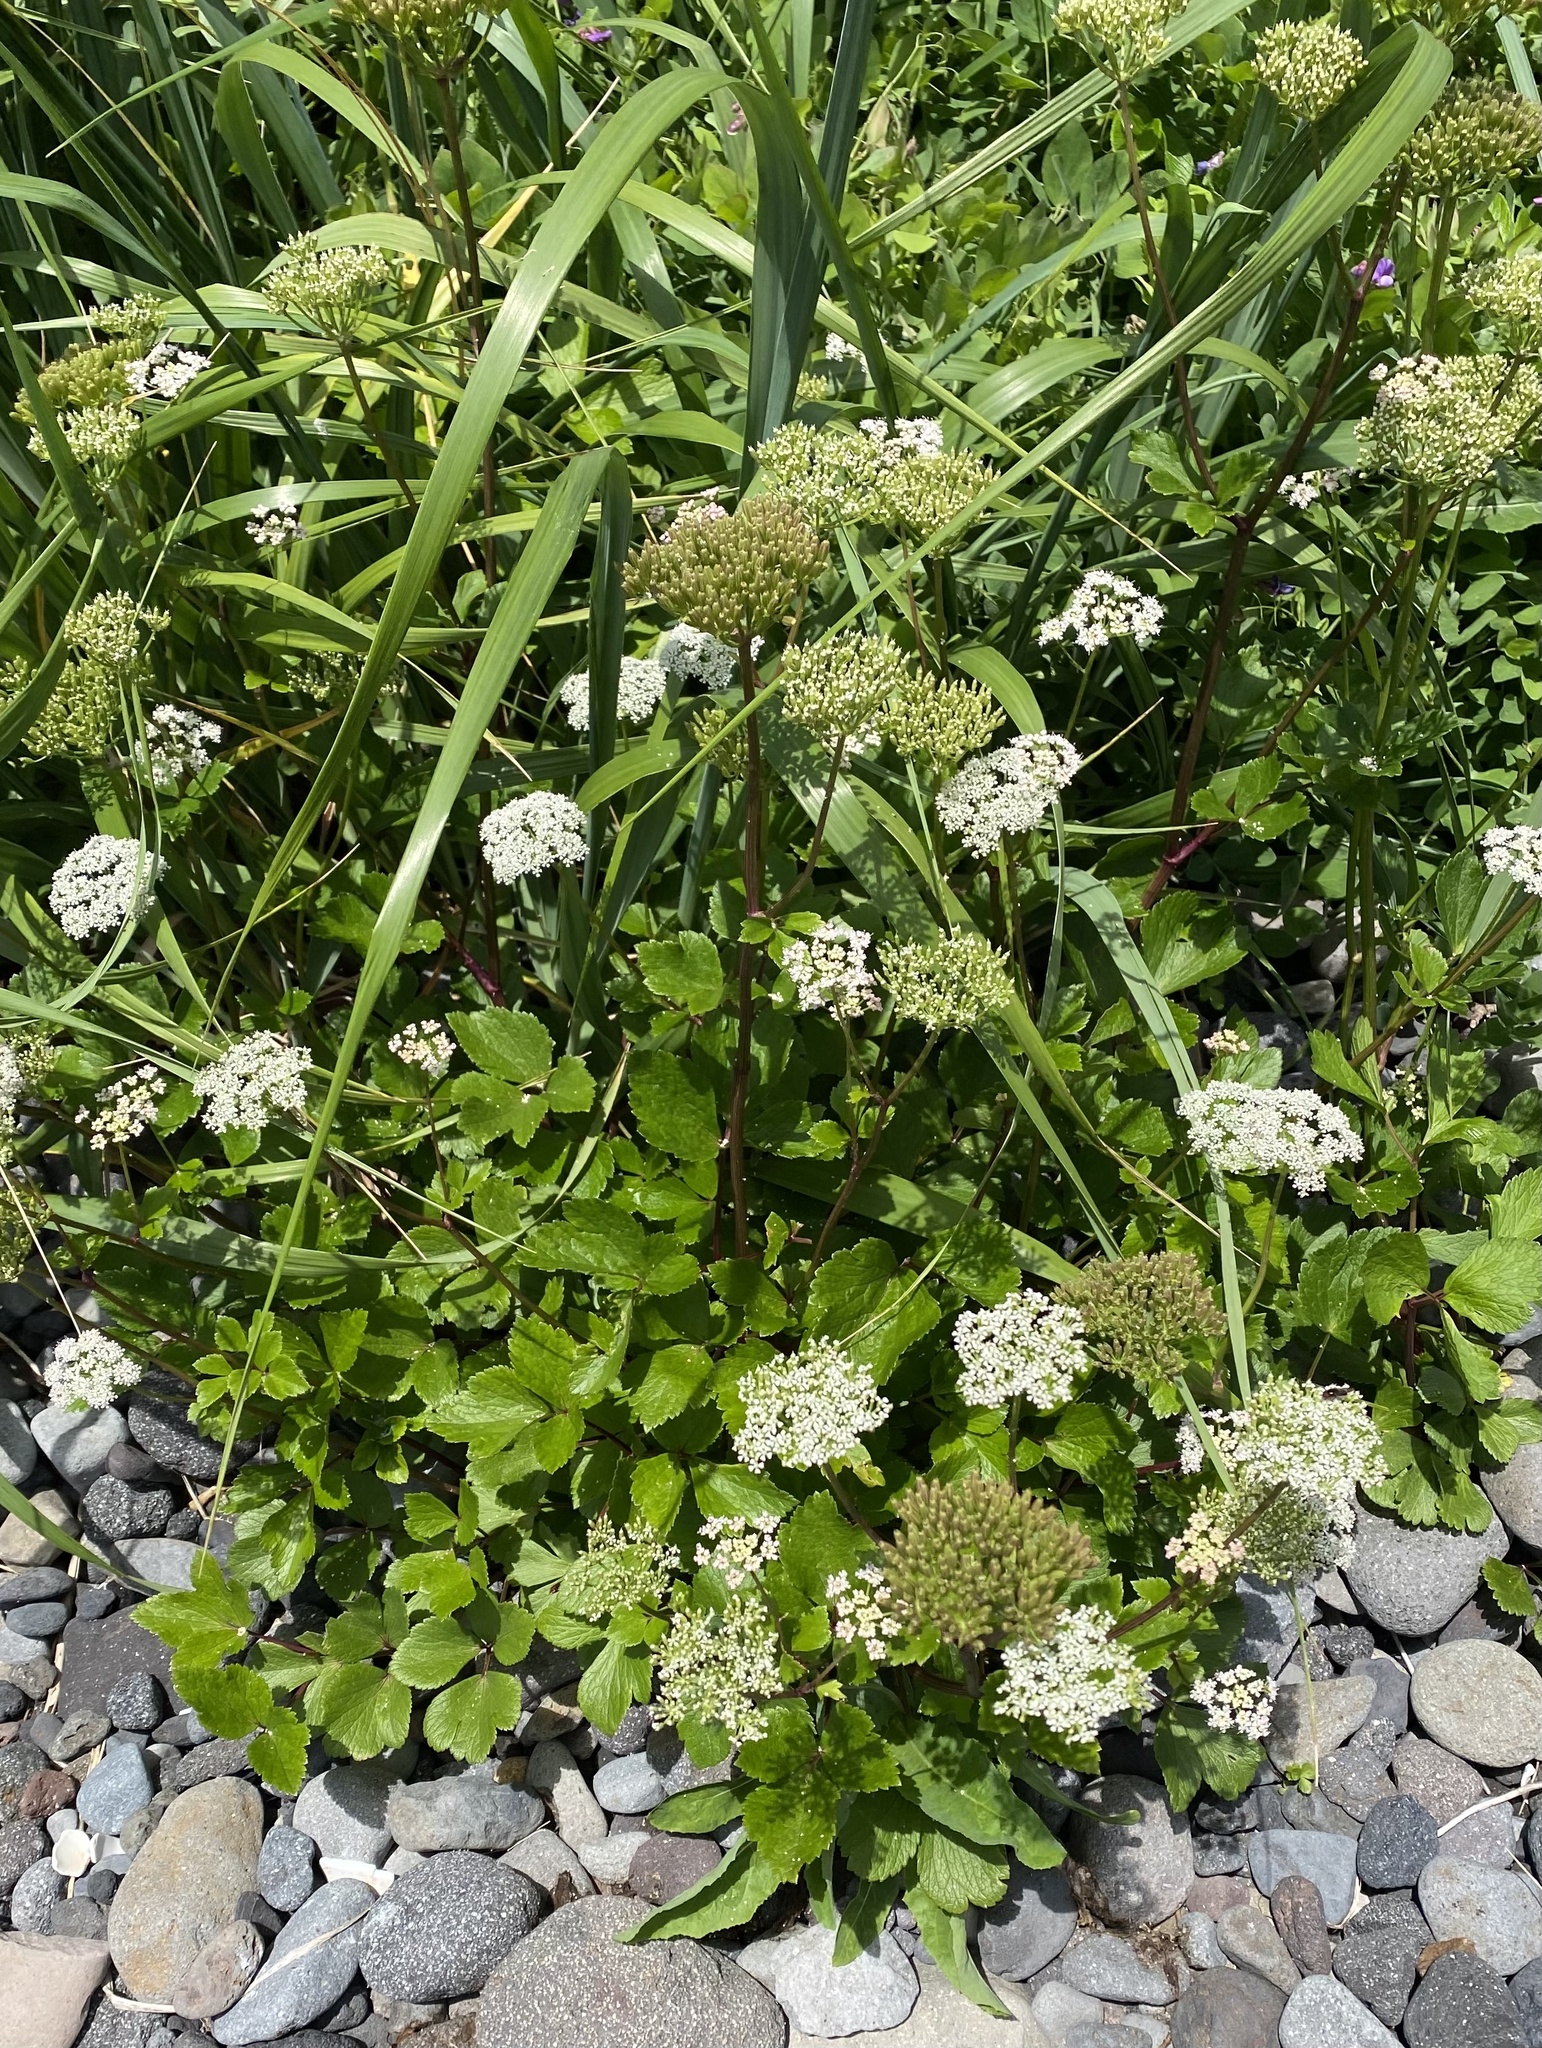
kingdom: Plantae
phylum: Tracheophyta
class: Magnoliopsida
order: Apiales
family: Apiaceae
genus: Ligusticum
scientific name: Ligusticum scothicum
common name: Beach lovage
